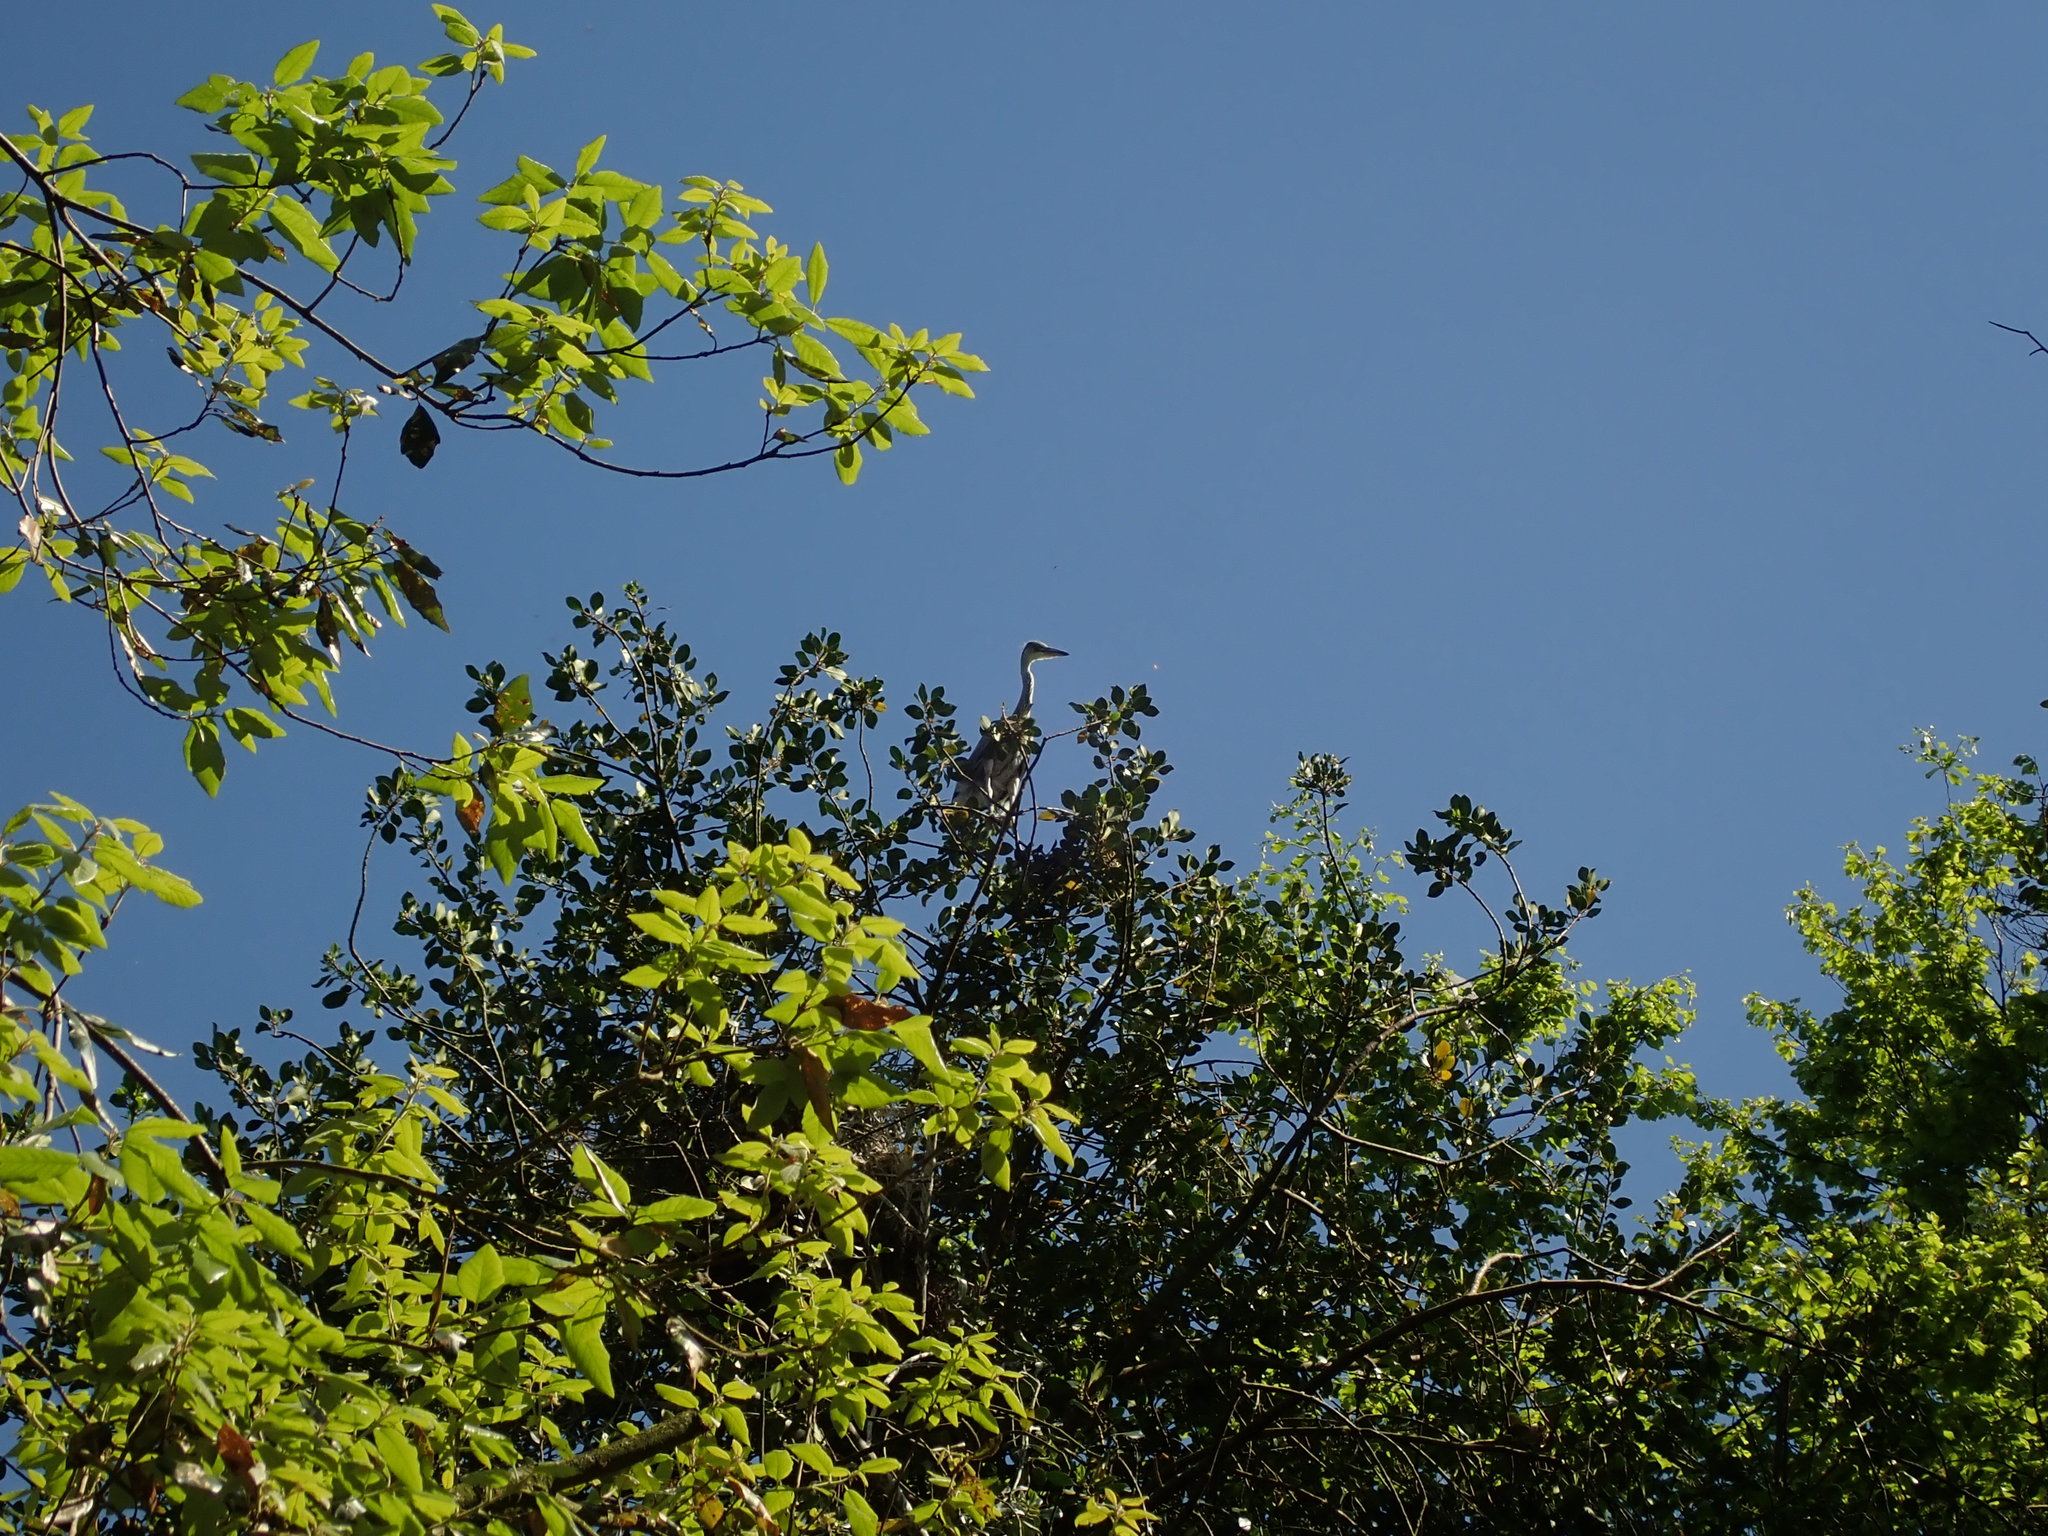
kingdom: Animalia
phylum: Chordata
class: Aves
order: Pelecaniformes
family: Ardeidae
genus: Ardea
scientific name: Ardea cinerea
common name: Grey heron
